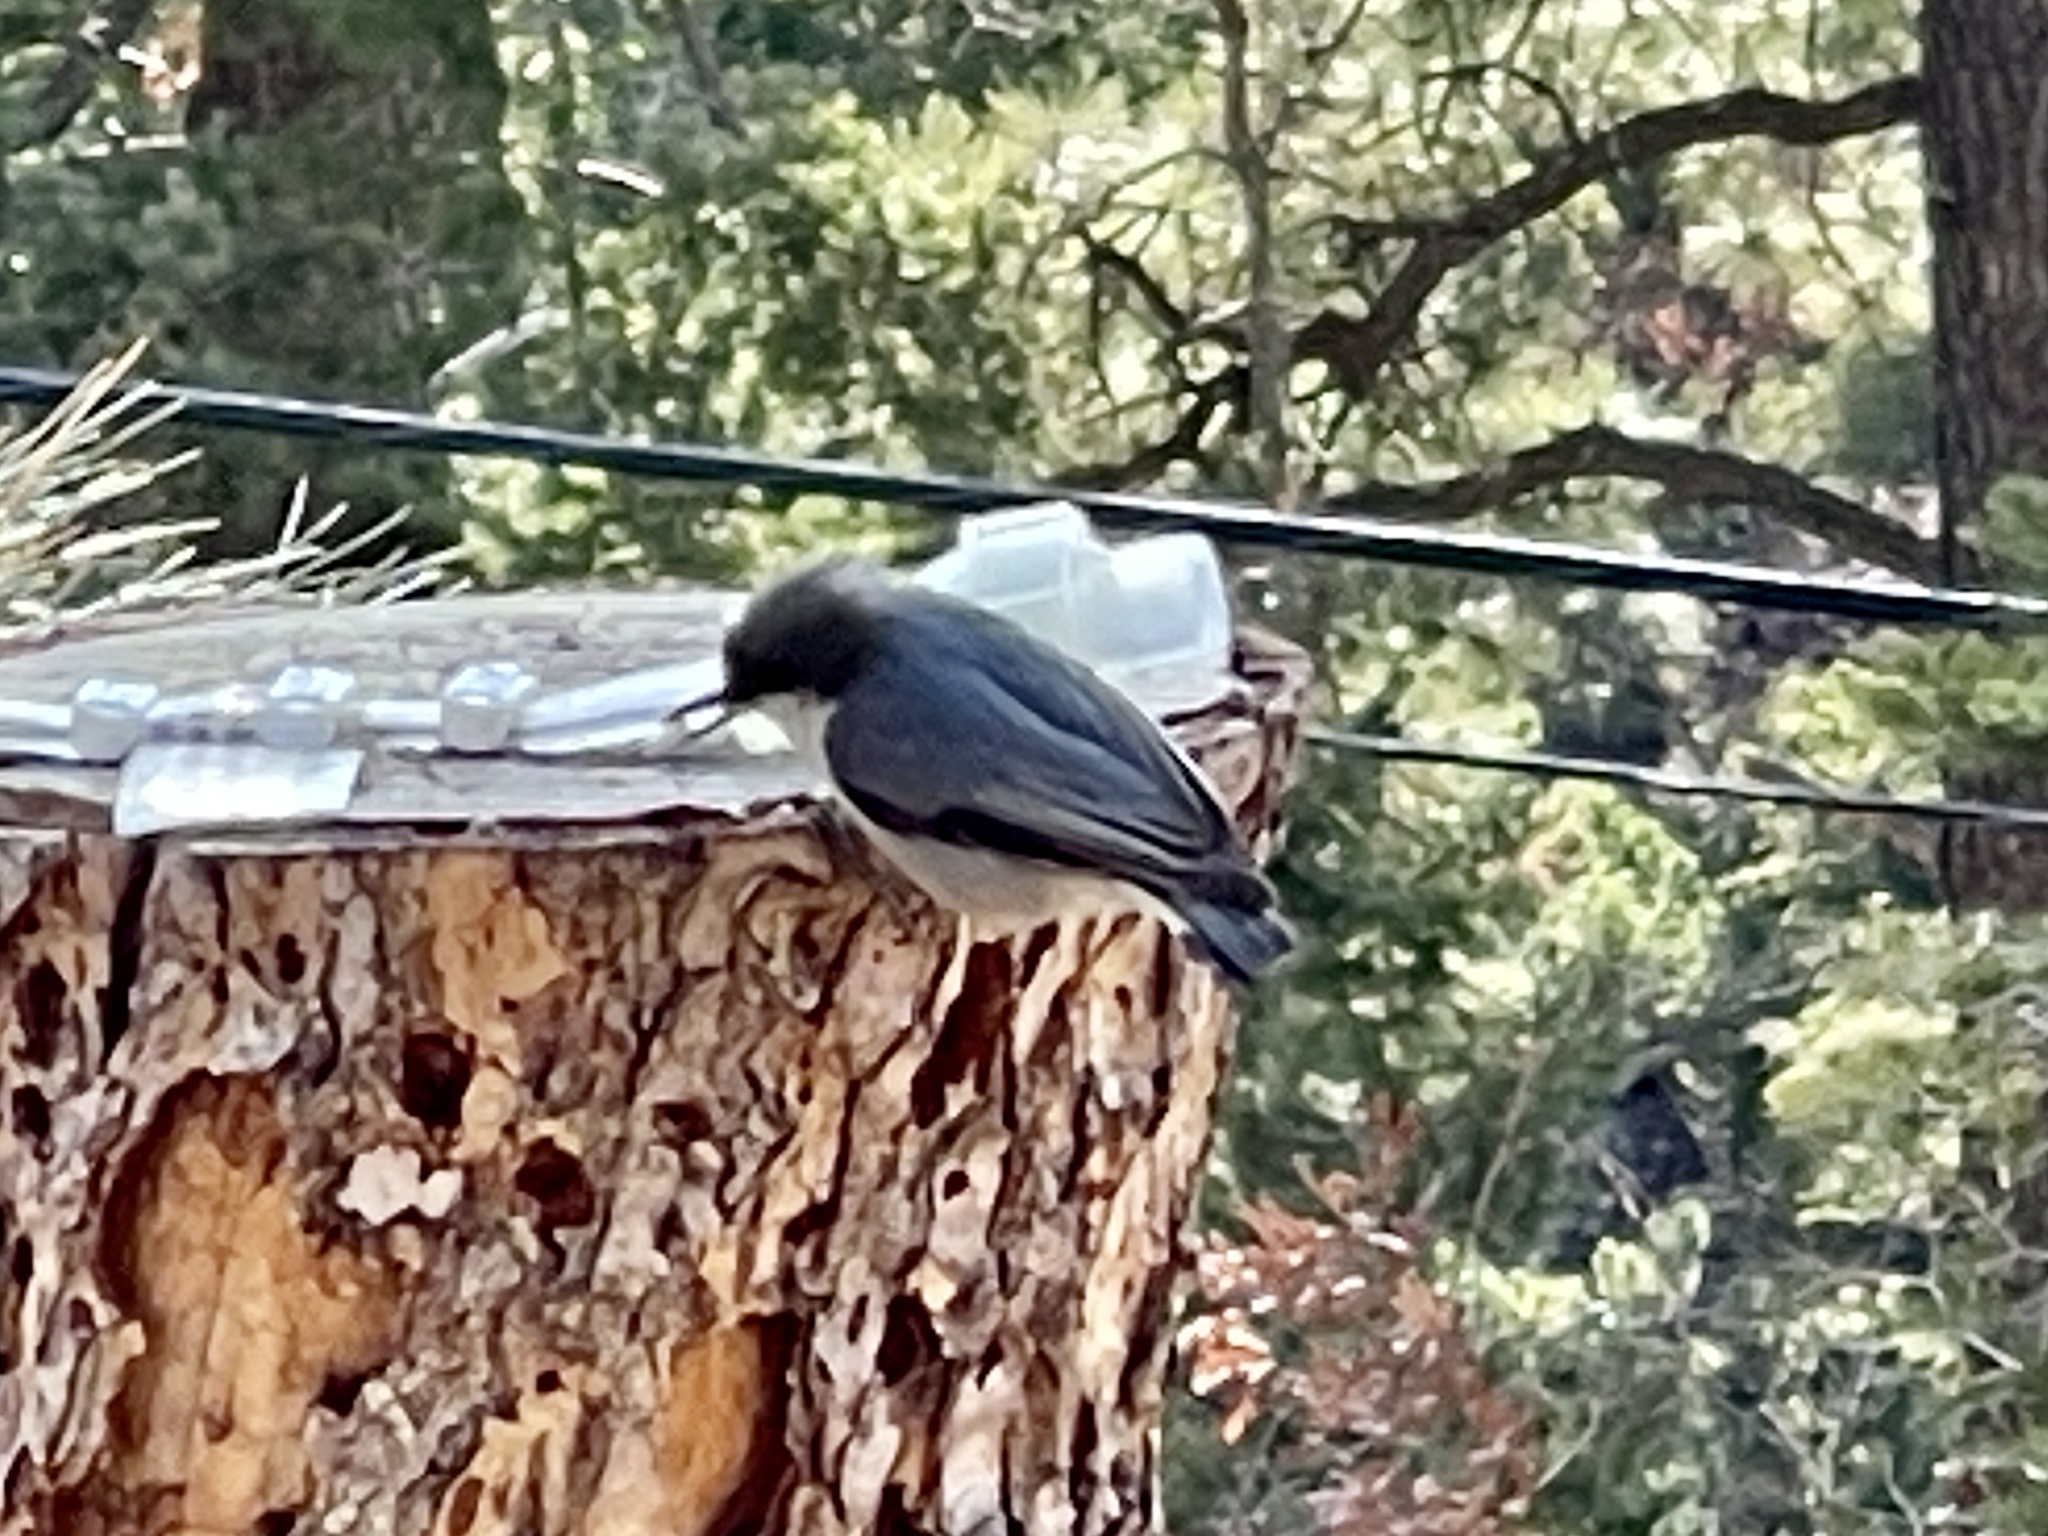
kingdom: Animalia
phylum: Chordata
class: Aves
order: Passeriformes
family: Sittidae
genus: Sitta
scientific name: Sitta pygmaea
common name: Pygmy nuthatch
